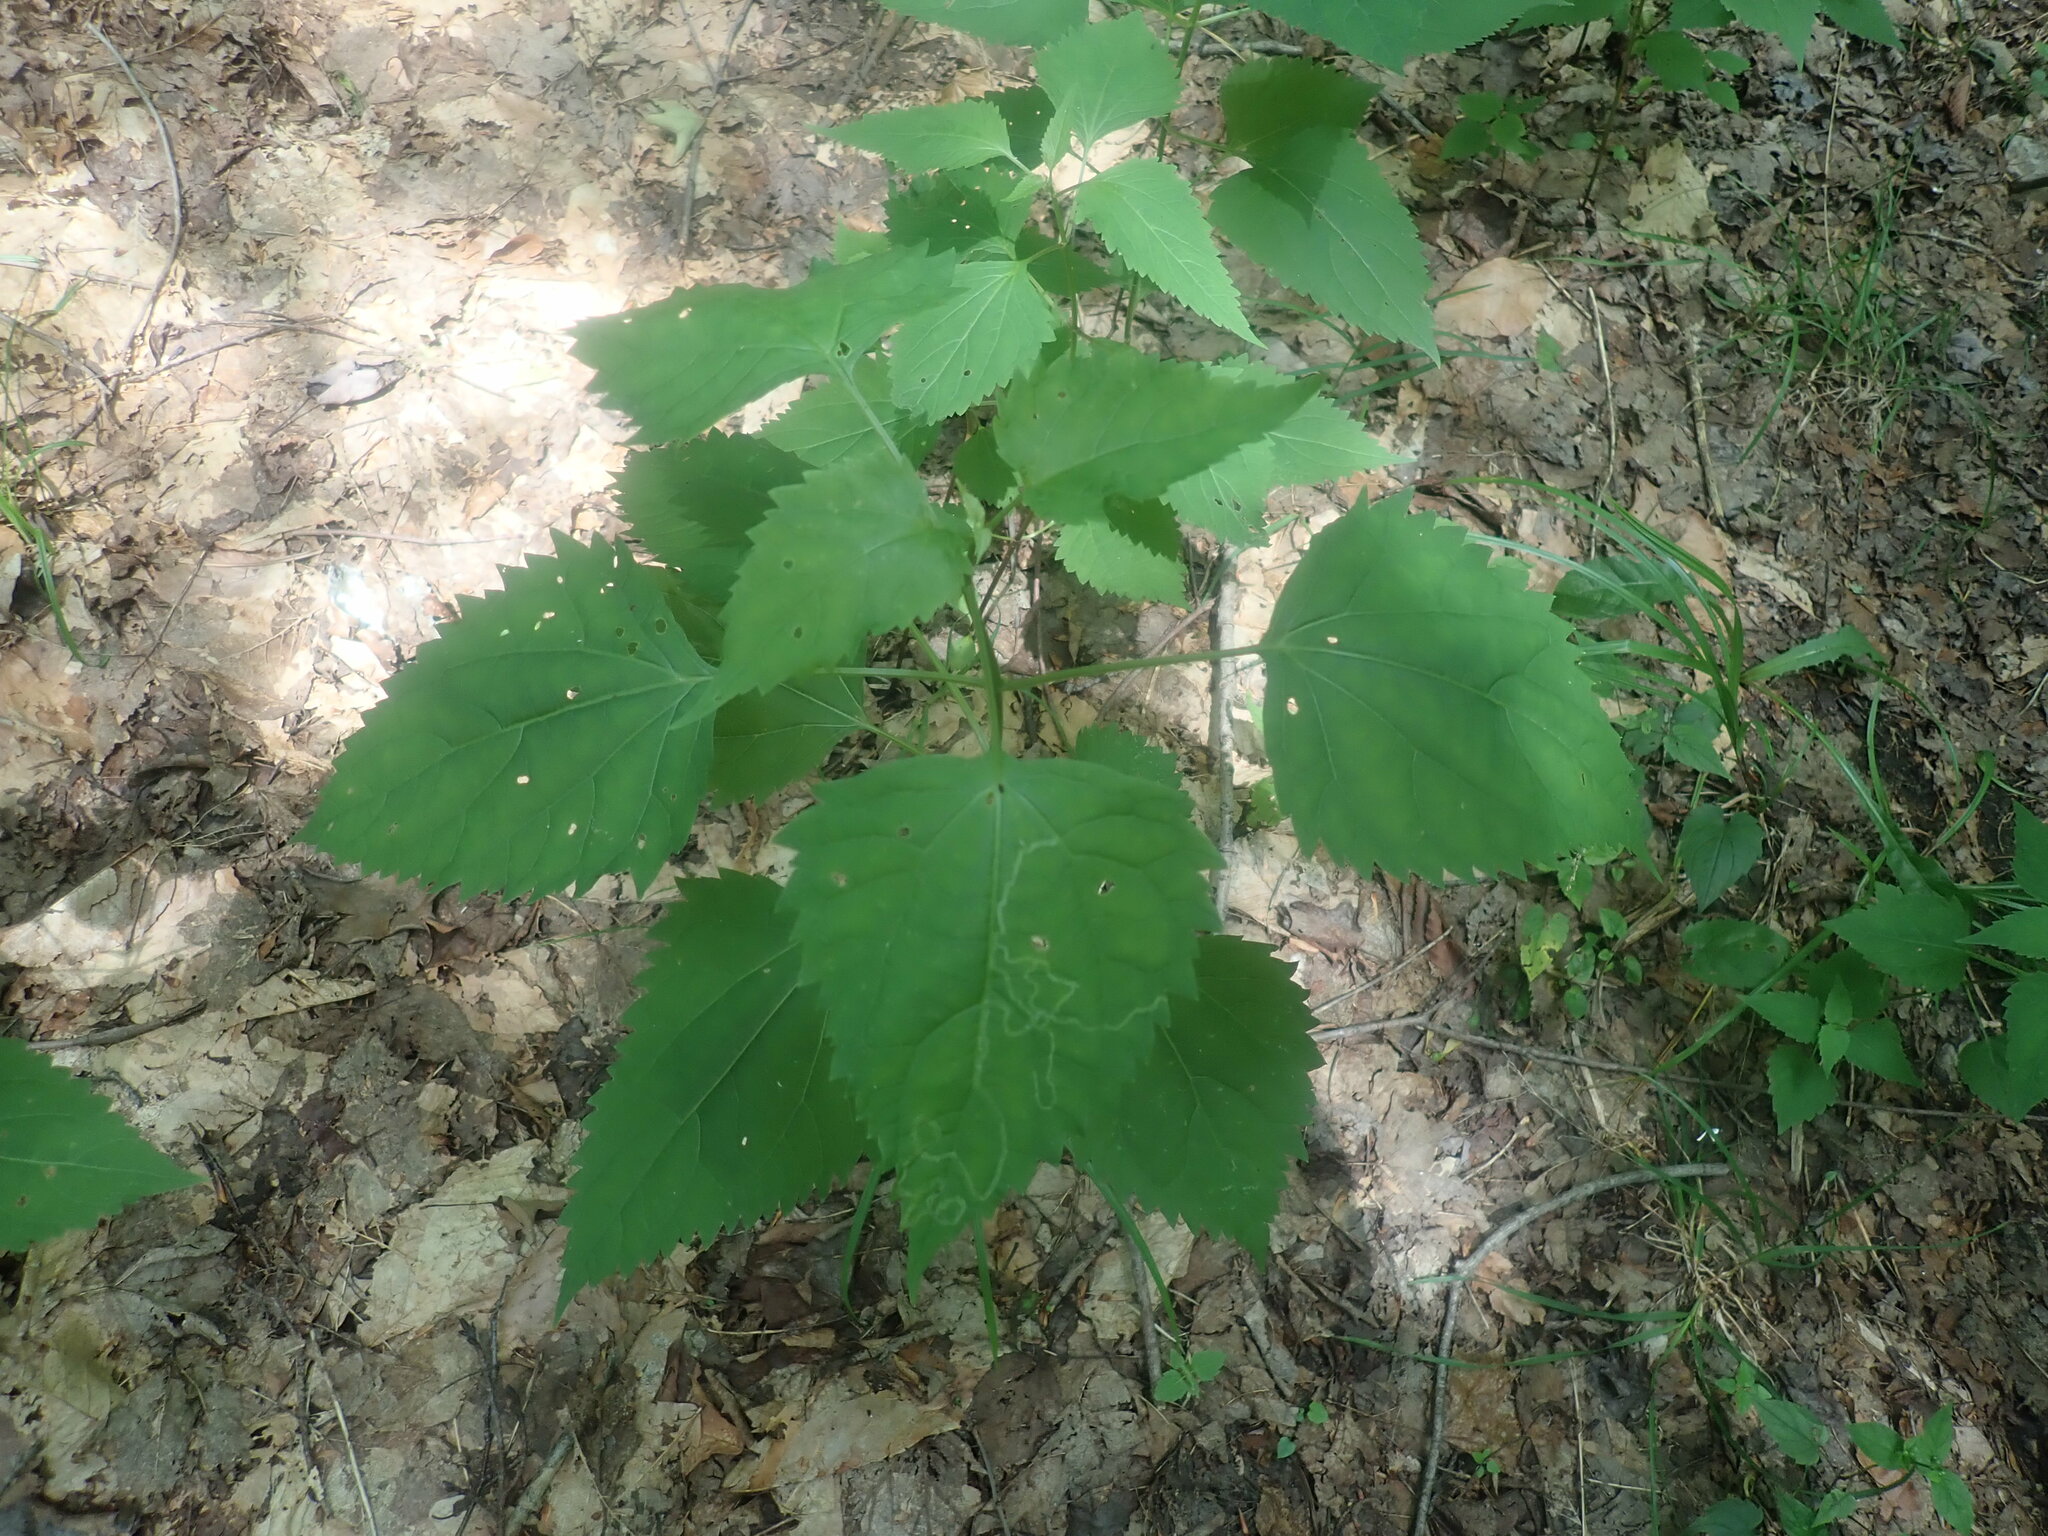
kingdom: Plantae
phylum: Tracheophyta
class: Magnoliopsida
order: Asterales
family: Asteraceae
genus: Ageratina
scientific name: Ageratina altissima
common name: White snakeroot
